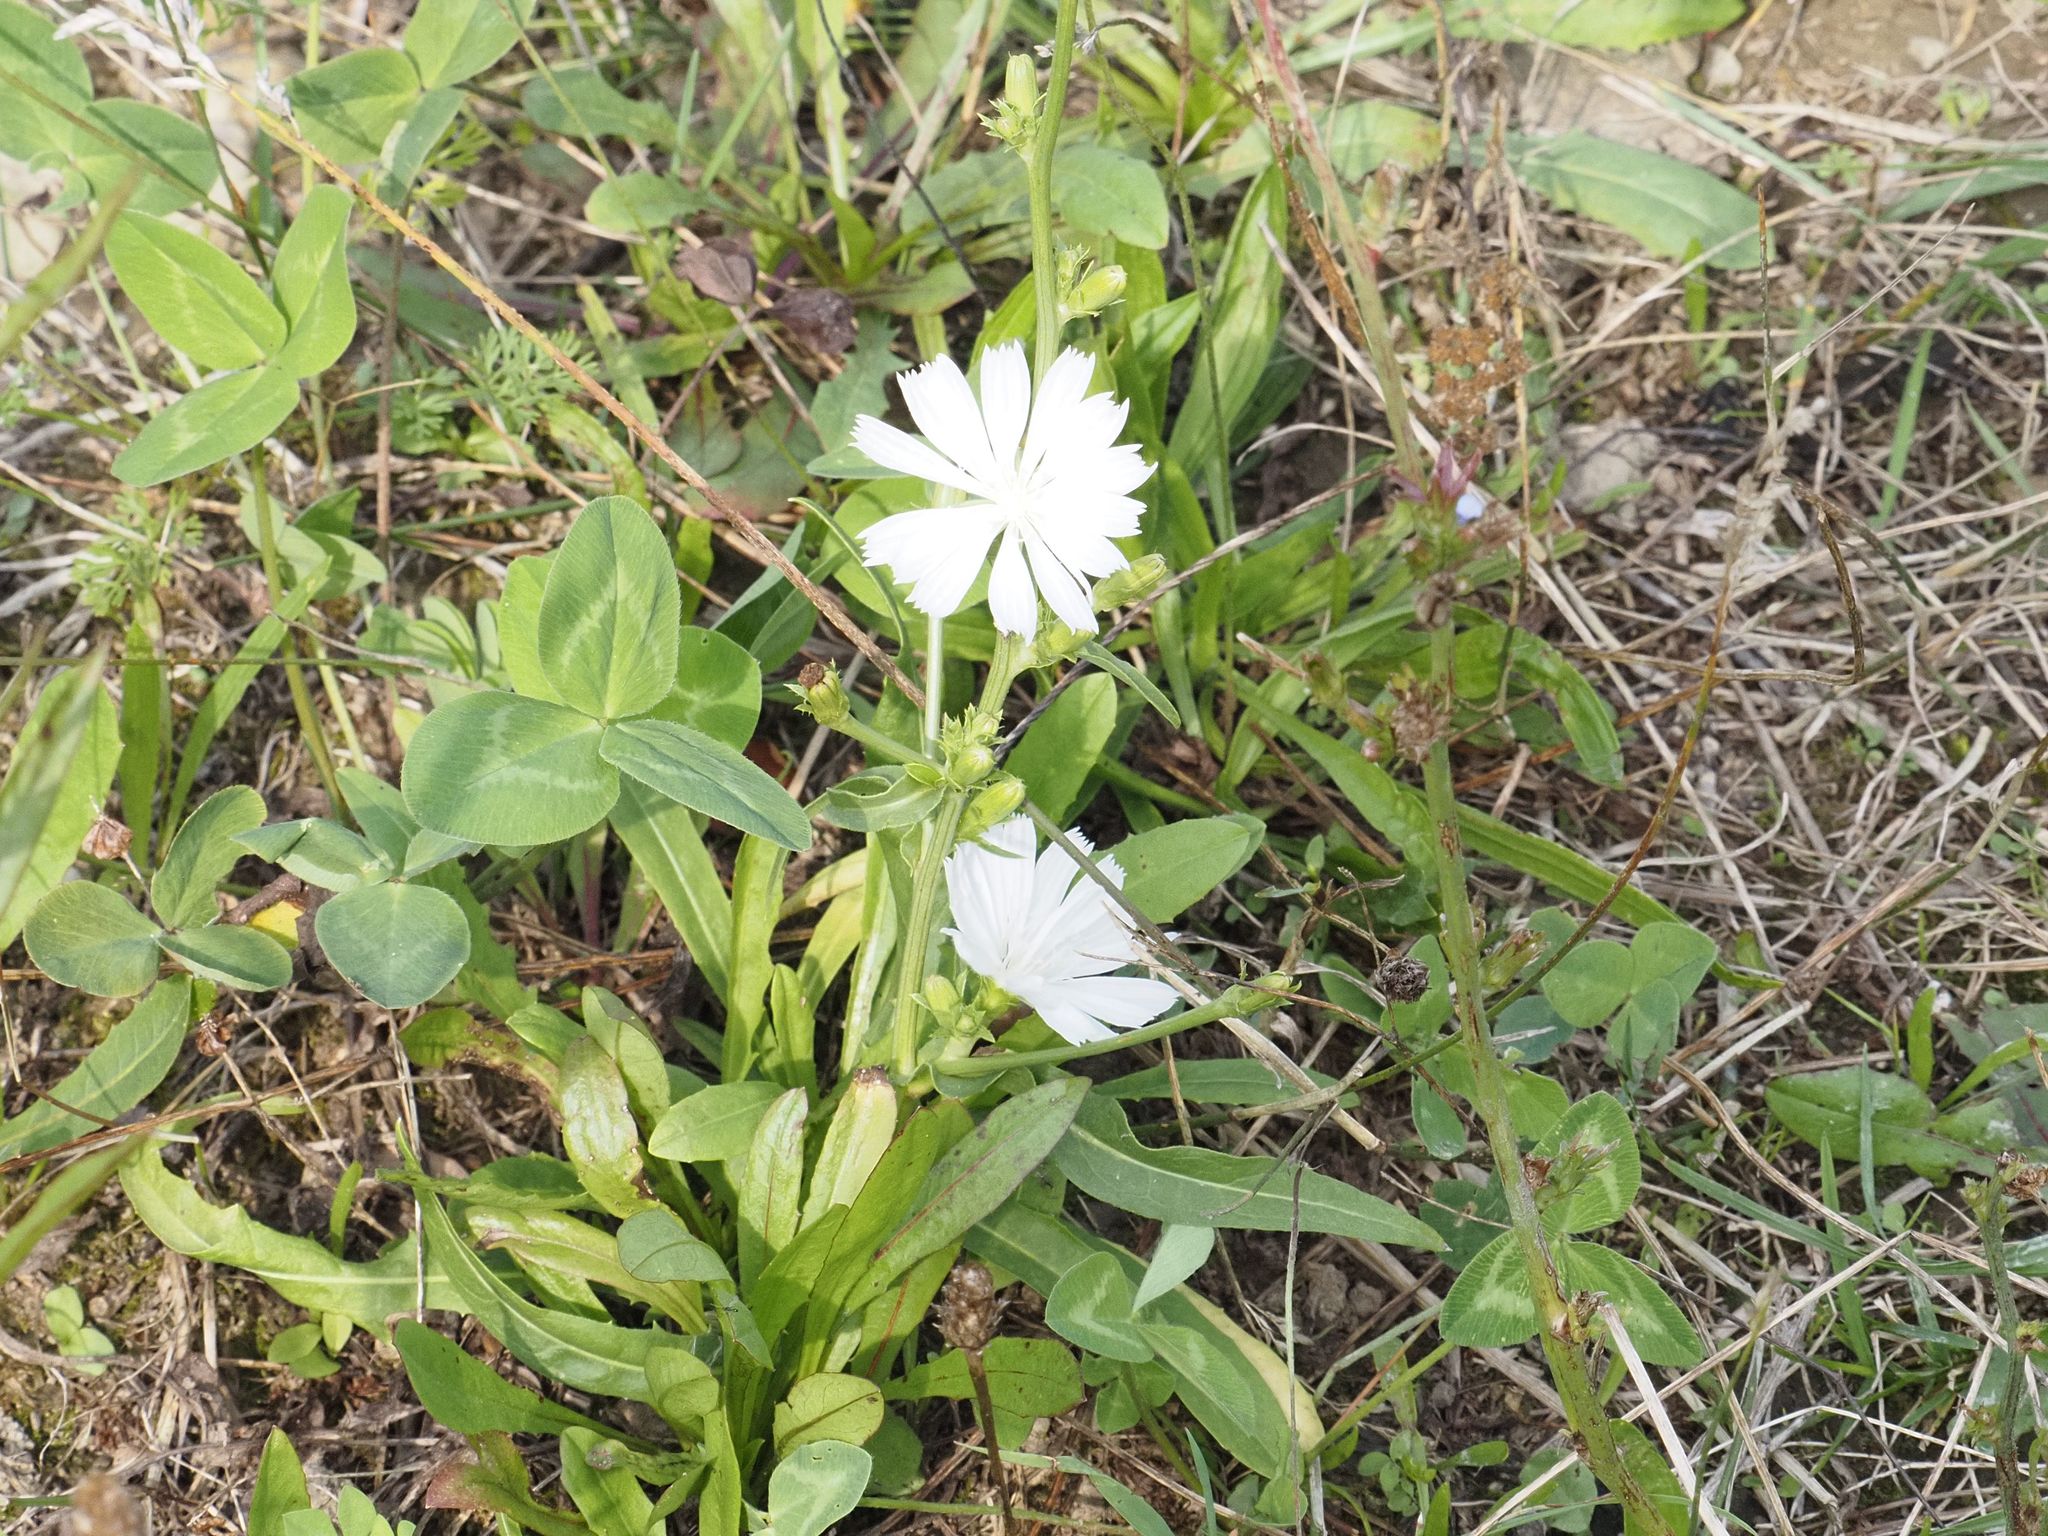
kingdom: Plantae
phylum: Tracheophyta
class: Magnoliopsida
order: Asterales
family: Asteraceae
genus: Cichorium
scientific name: Cichorium intybus
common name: Chicory
